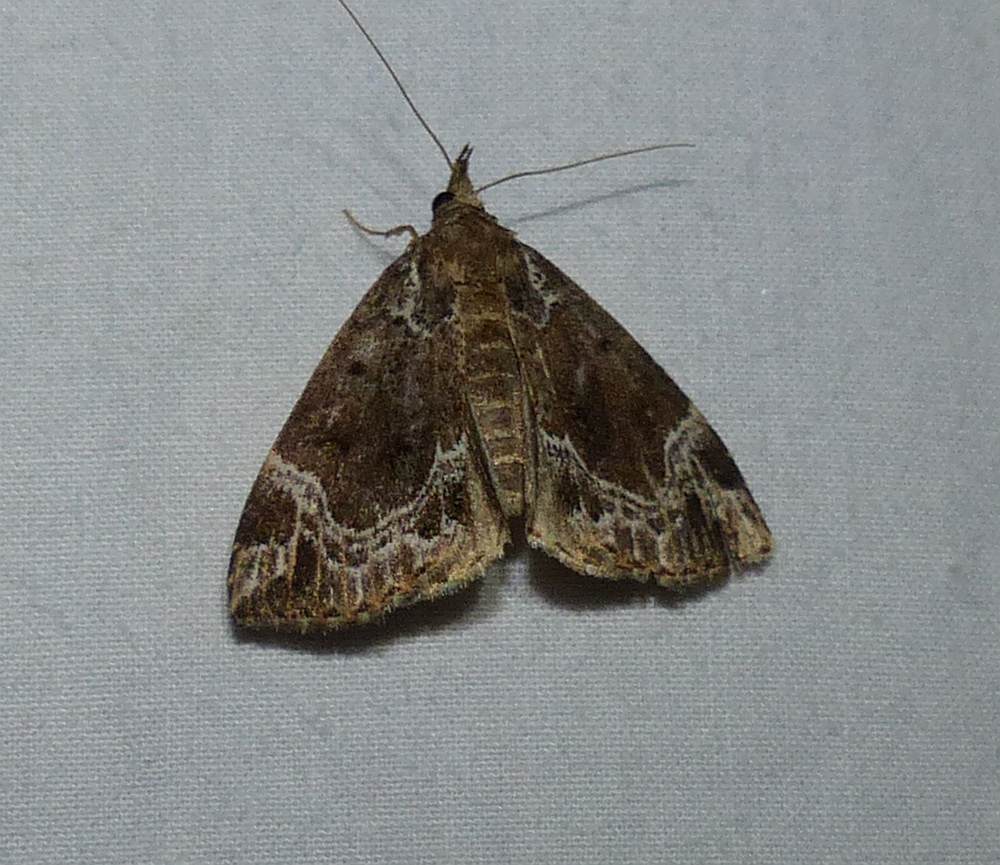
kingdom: Animalia
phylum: Arthropoda
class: Insecta
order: Lepidoptera
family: Erebidae
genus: Hypena
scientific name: Hypena abalienalis
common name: White-lined snout
